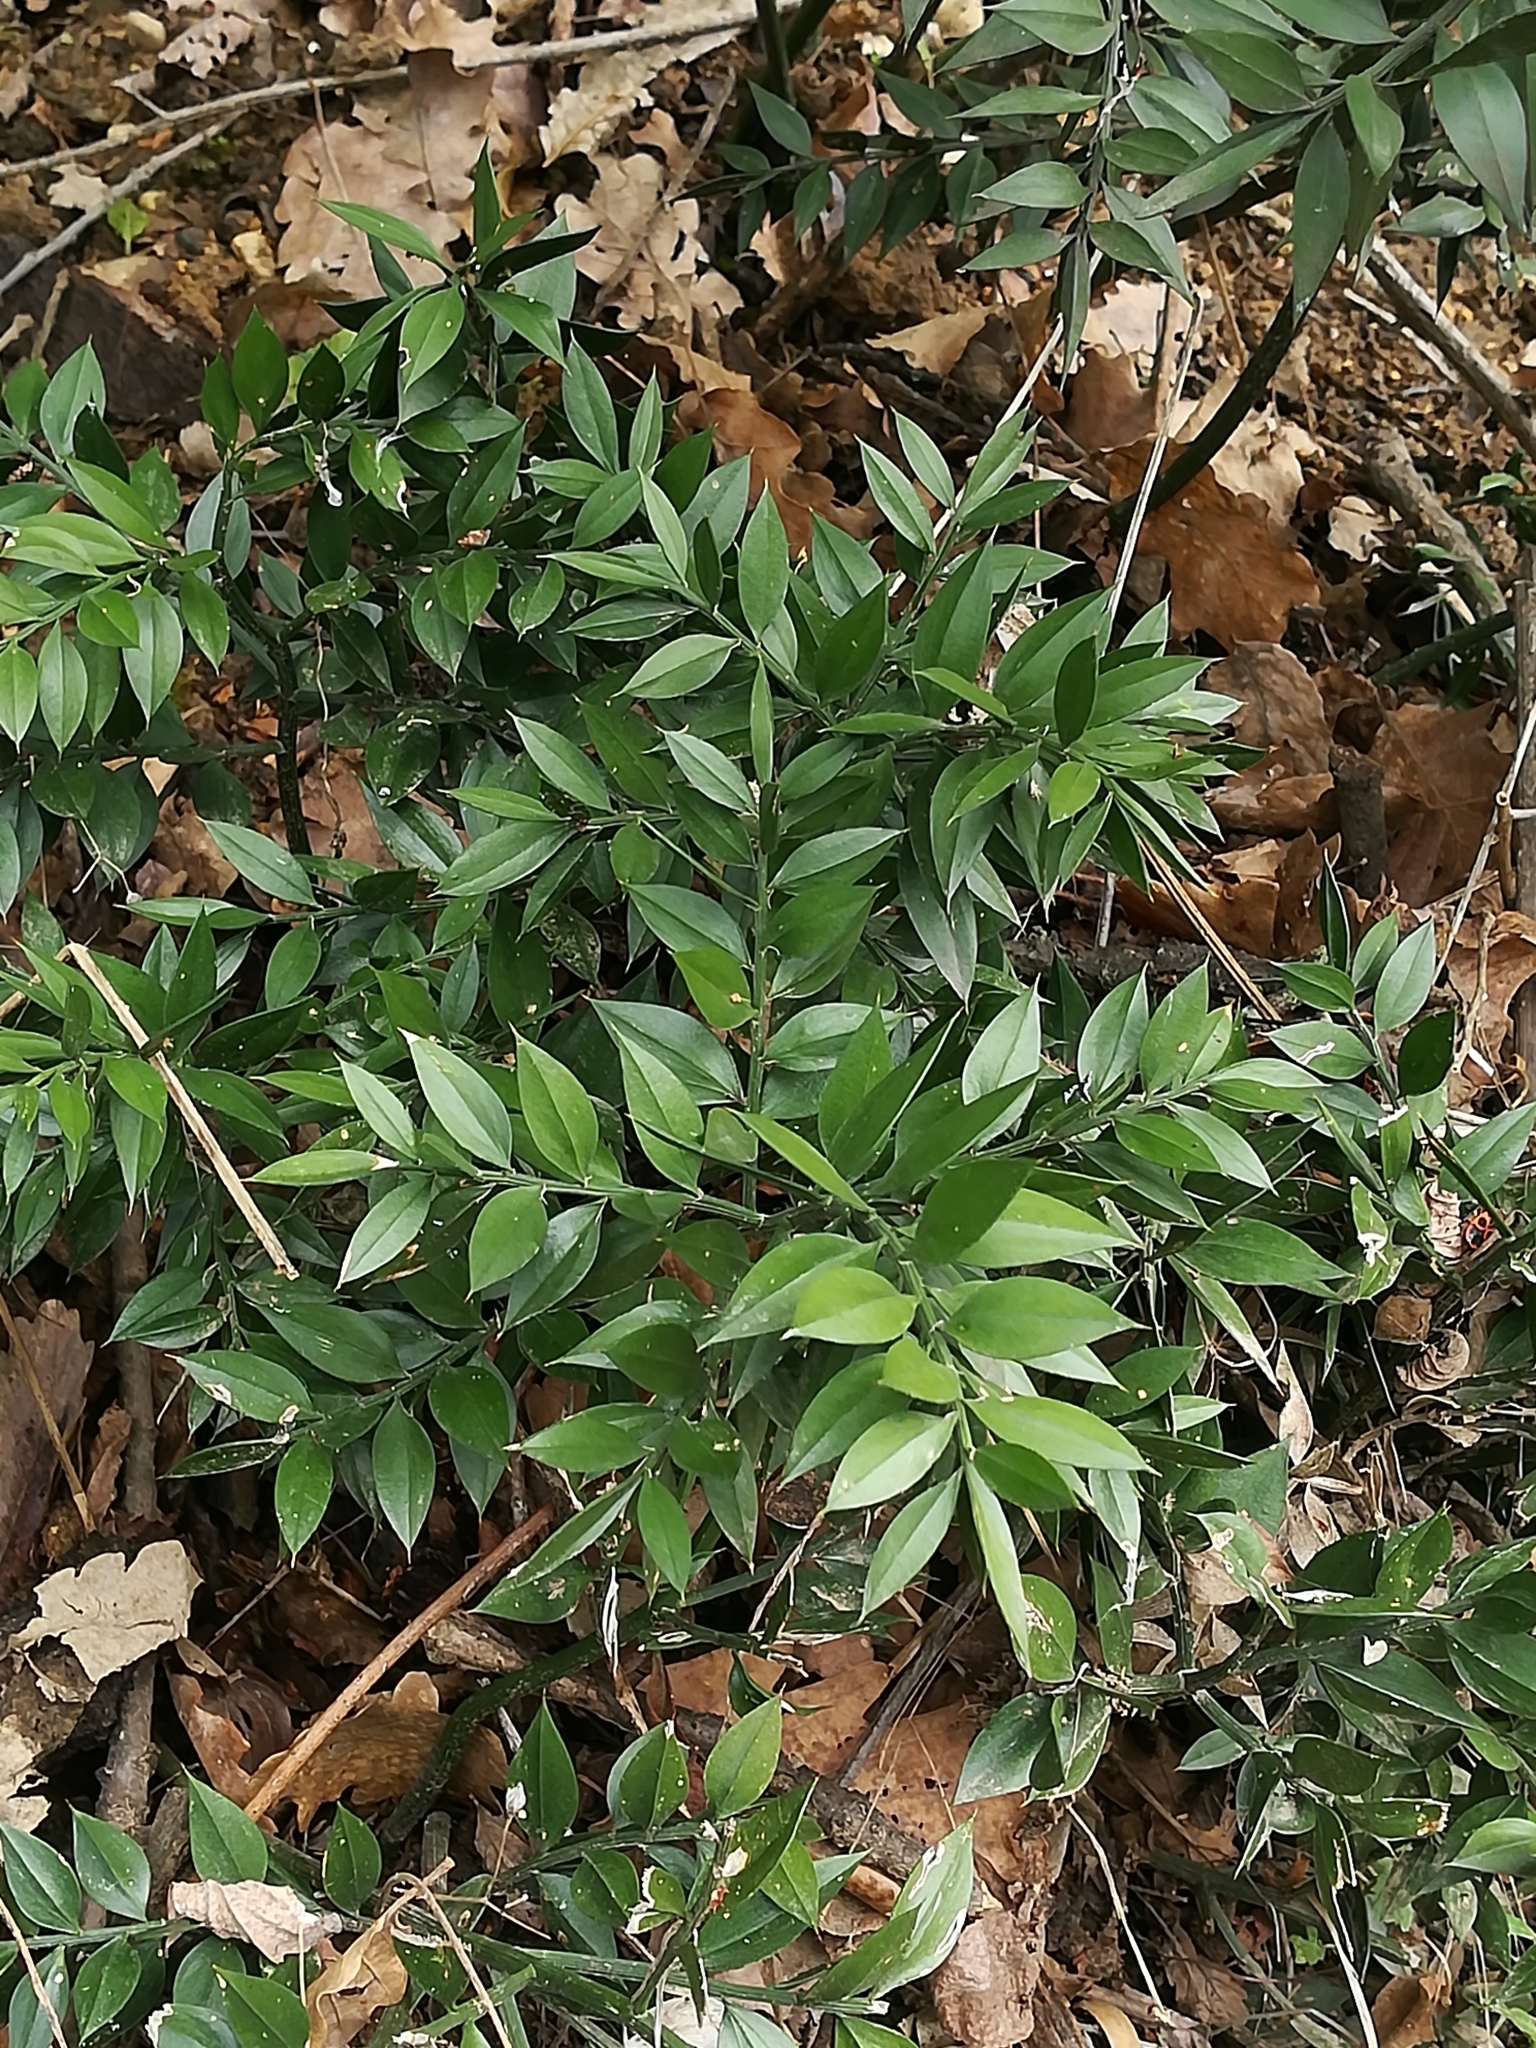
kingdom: Plantae
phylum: Tracheophyta
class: Liliopsida
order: Asparagales
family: Asparagaceae
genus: Ruscus
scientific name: Ruscus aculeatus
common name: Butcher's-broom
